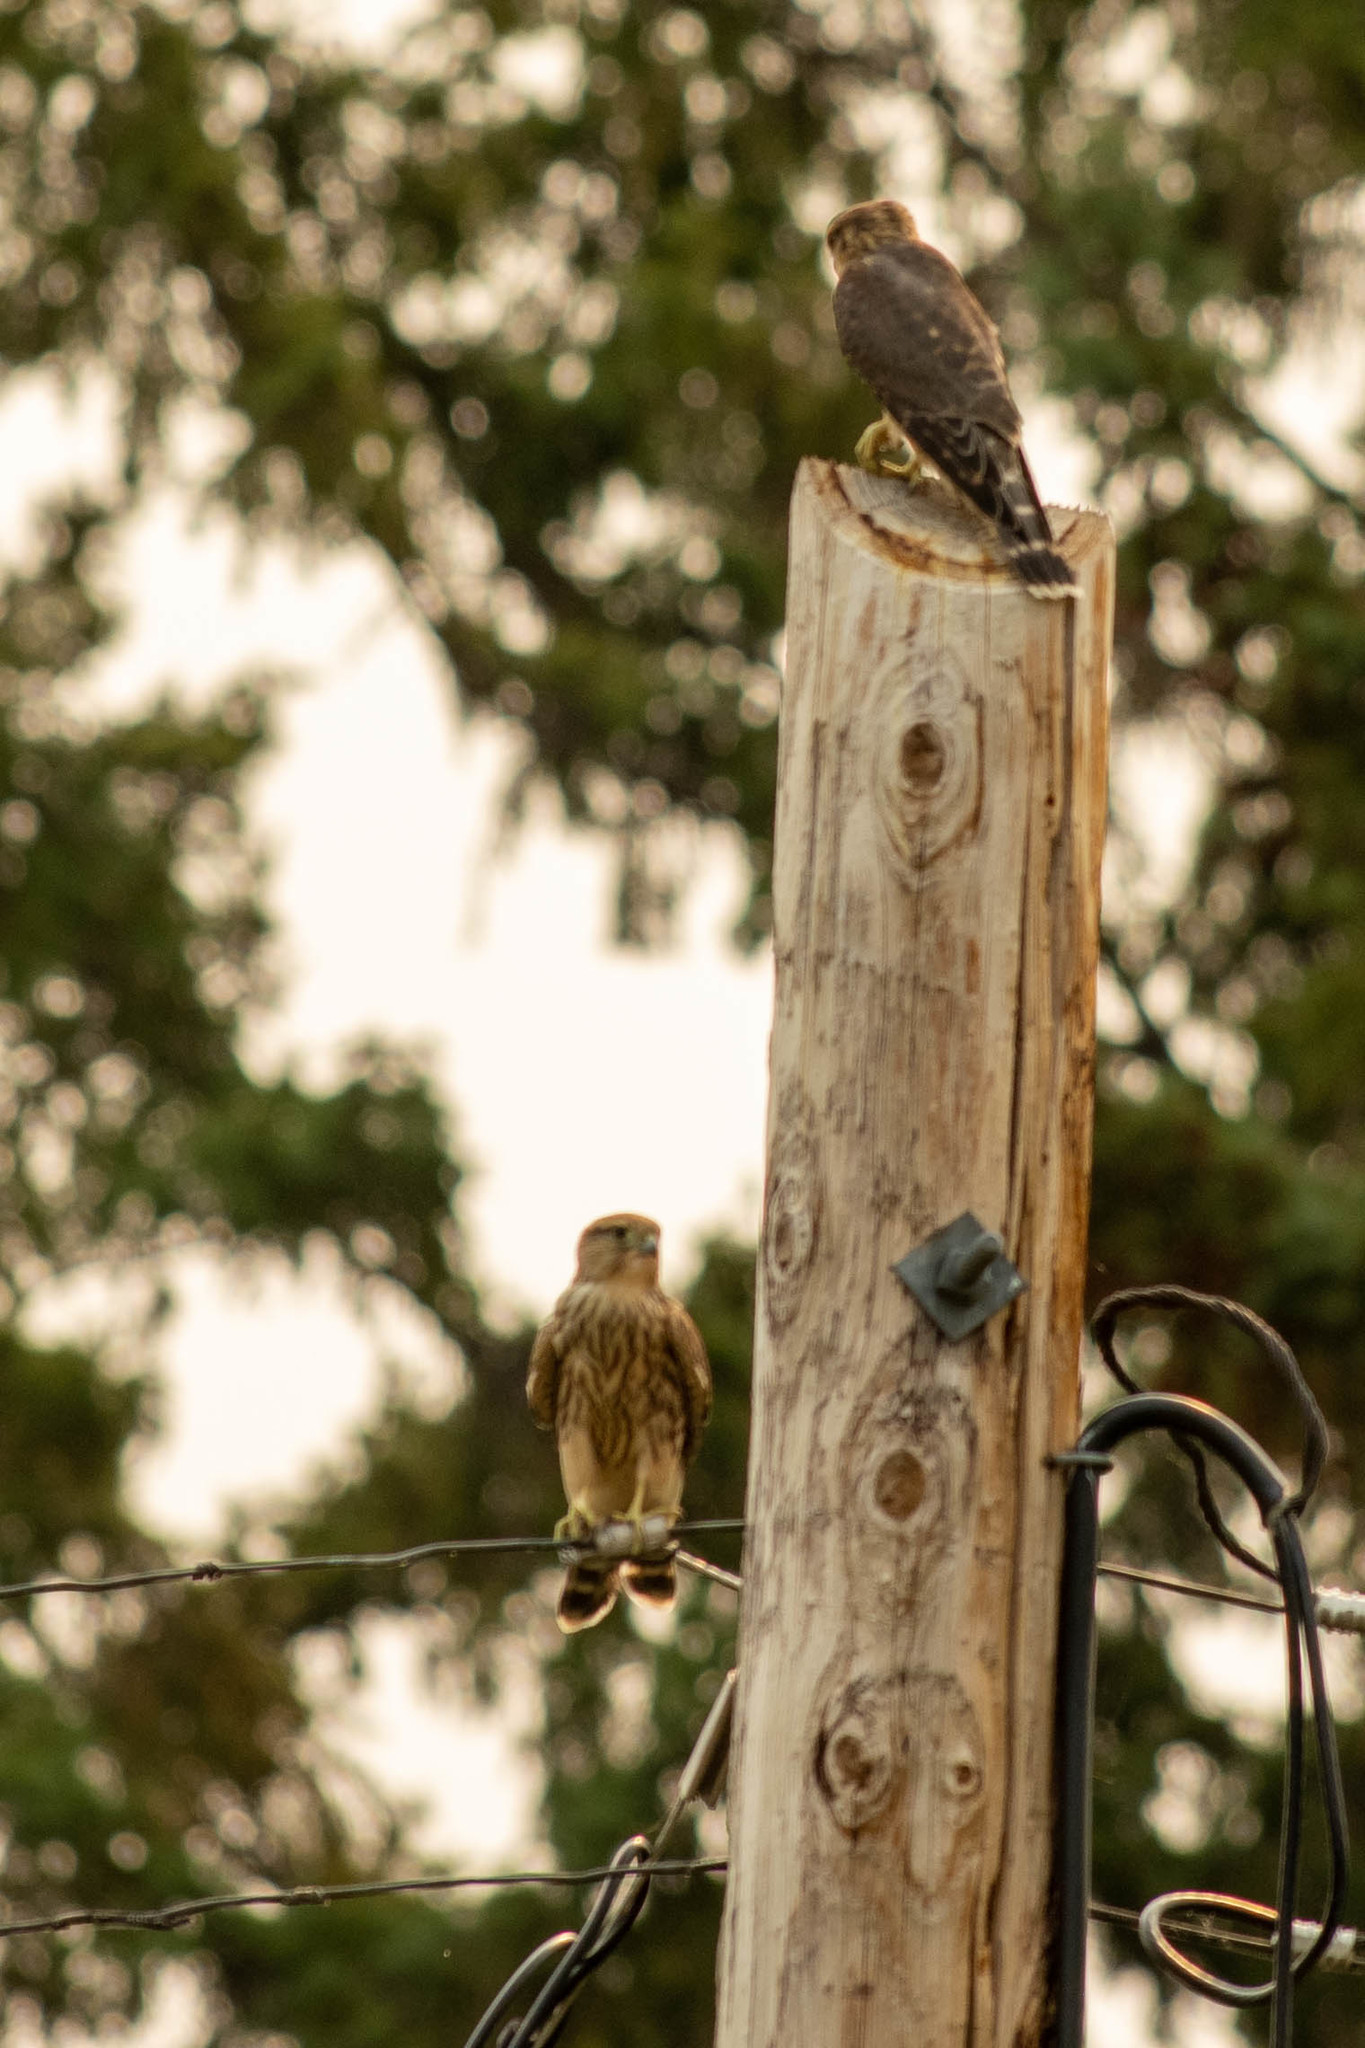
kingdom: Animalia
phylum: Chordata
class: Aves
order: Falconiformes
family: Falconidae
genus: Falco
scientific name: Falco columbarius
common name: Merlin
